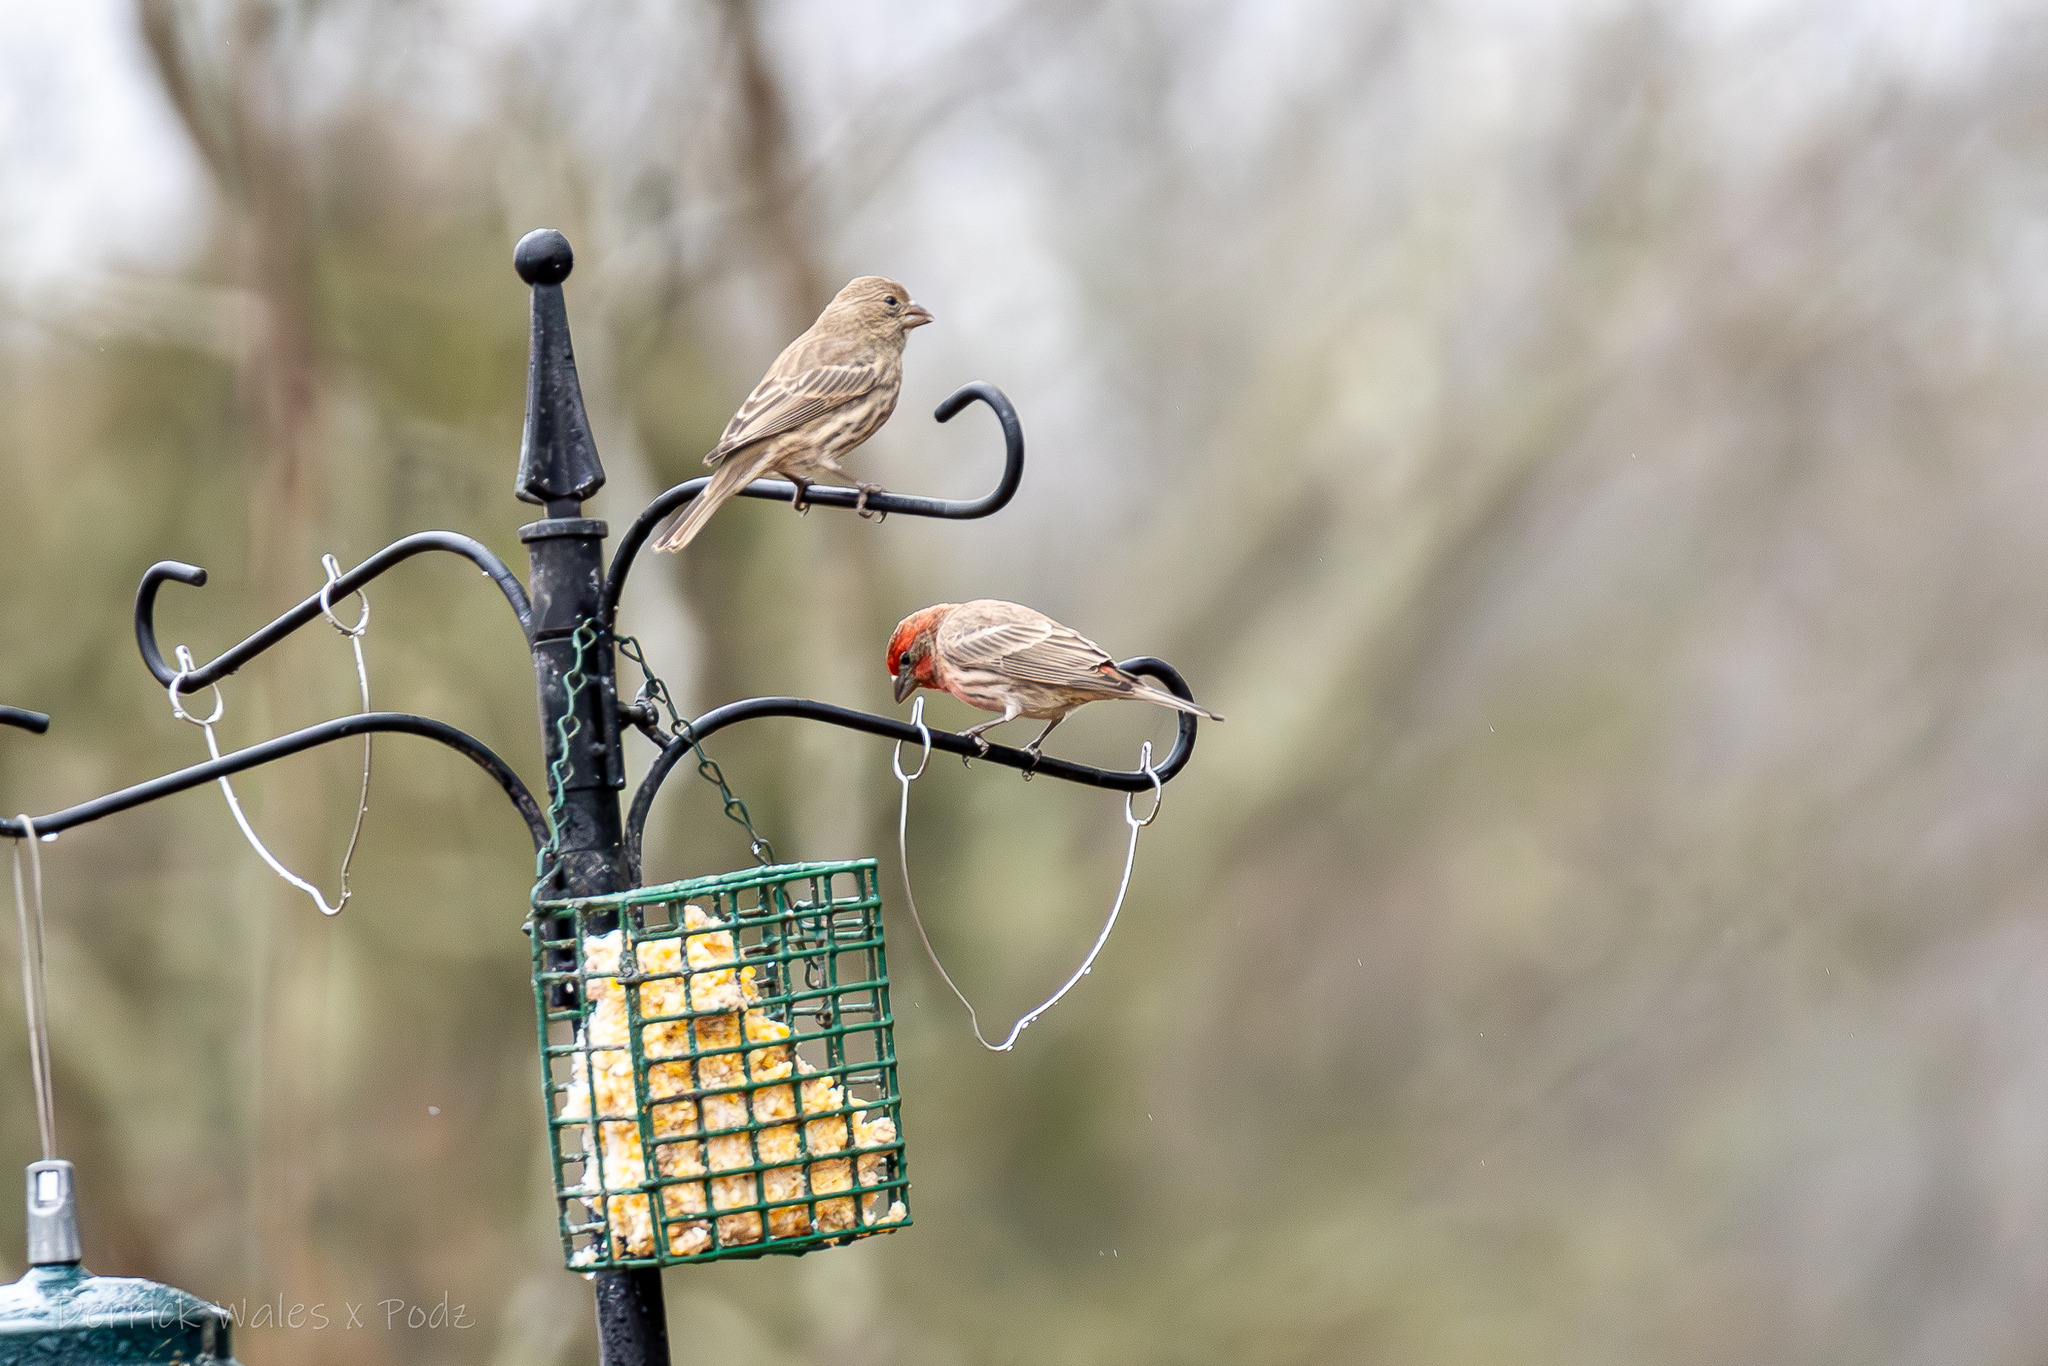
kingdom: Animalia
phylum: Chordata
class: Aves
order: Passeriformes
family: Fringillidae
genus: Haemorhous
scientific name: Haemorhous mexicanus
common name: House finch
